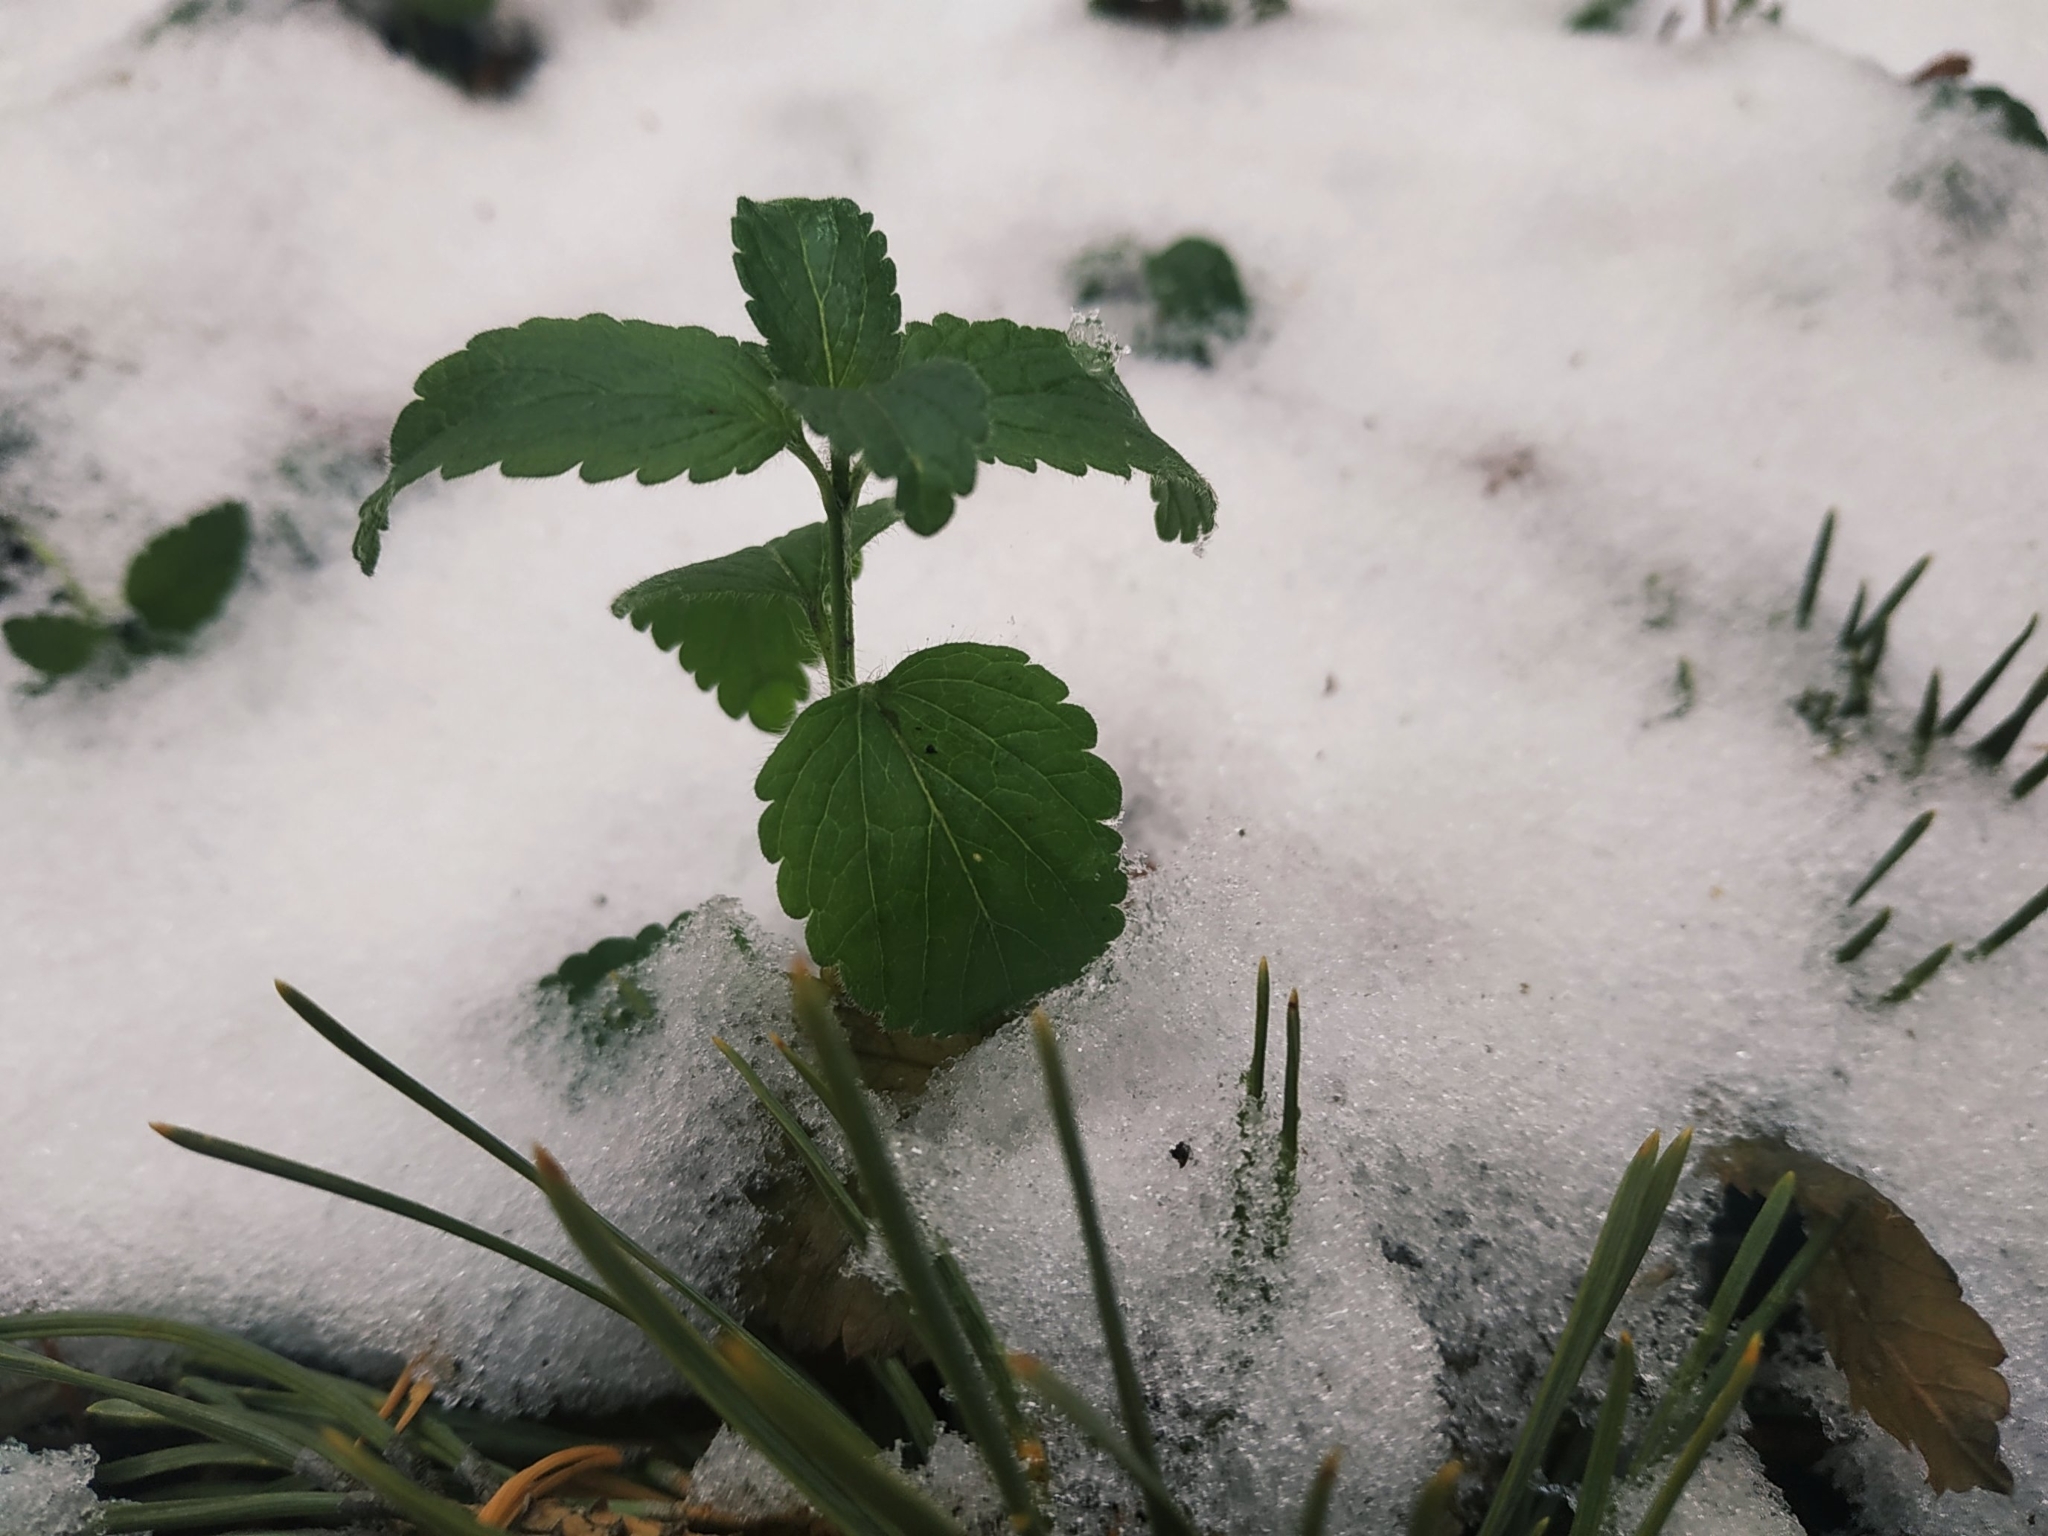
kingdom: Plantae
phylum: Tracheophyta
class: Magnoliopsida
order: Lamiales
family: Plantaginaceae
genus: Veronica
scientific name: Veronica chamaedrys
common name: Germander speedwell
